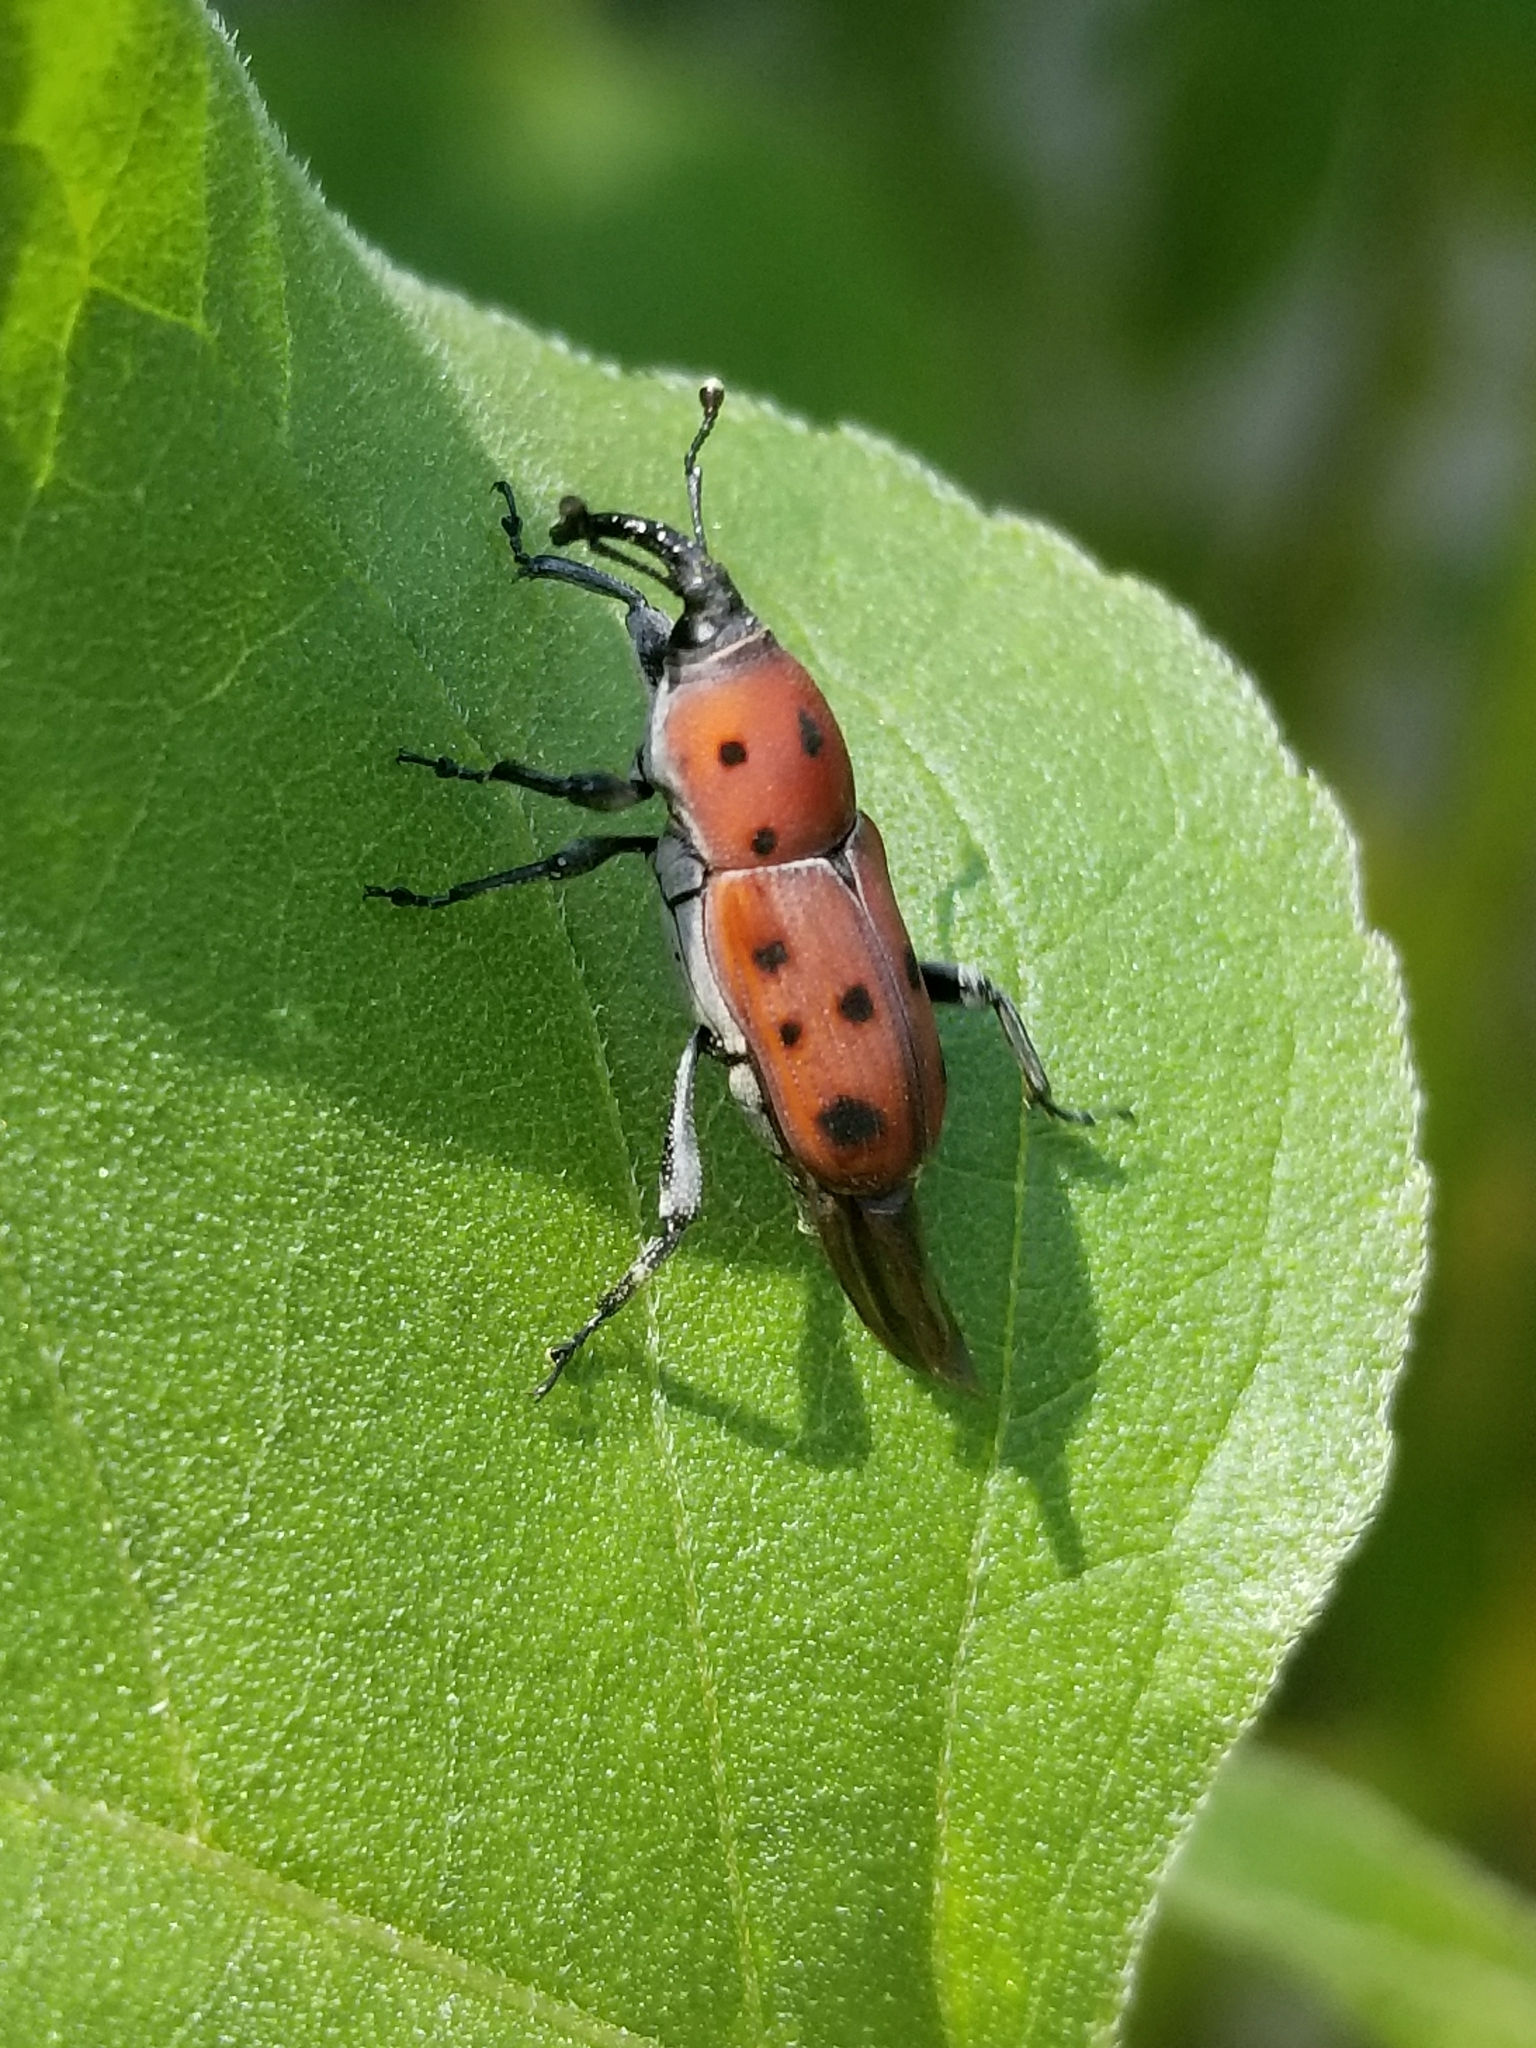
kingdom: Animalia
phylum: Arthropoda
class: Insecta
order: Coleoptera
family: Dryophthoridae
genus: Rhodobaenus
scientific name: Rhodobaenus tredecimpunctatus
